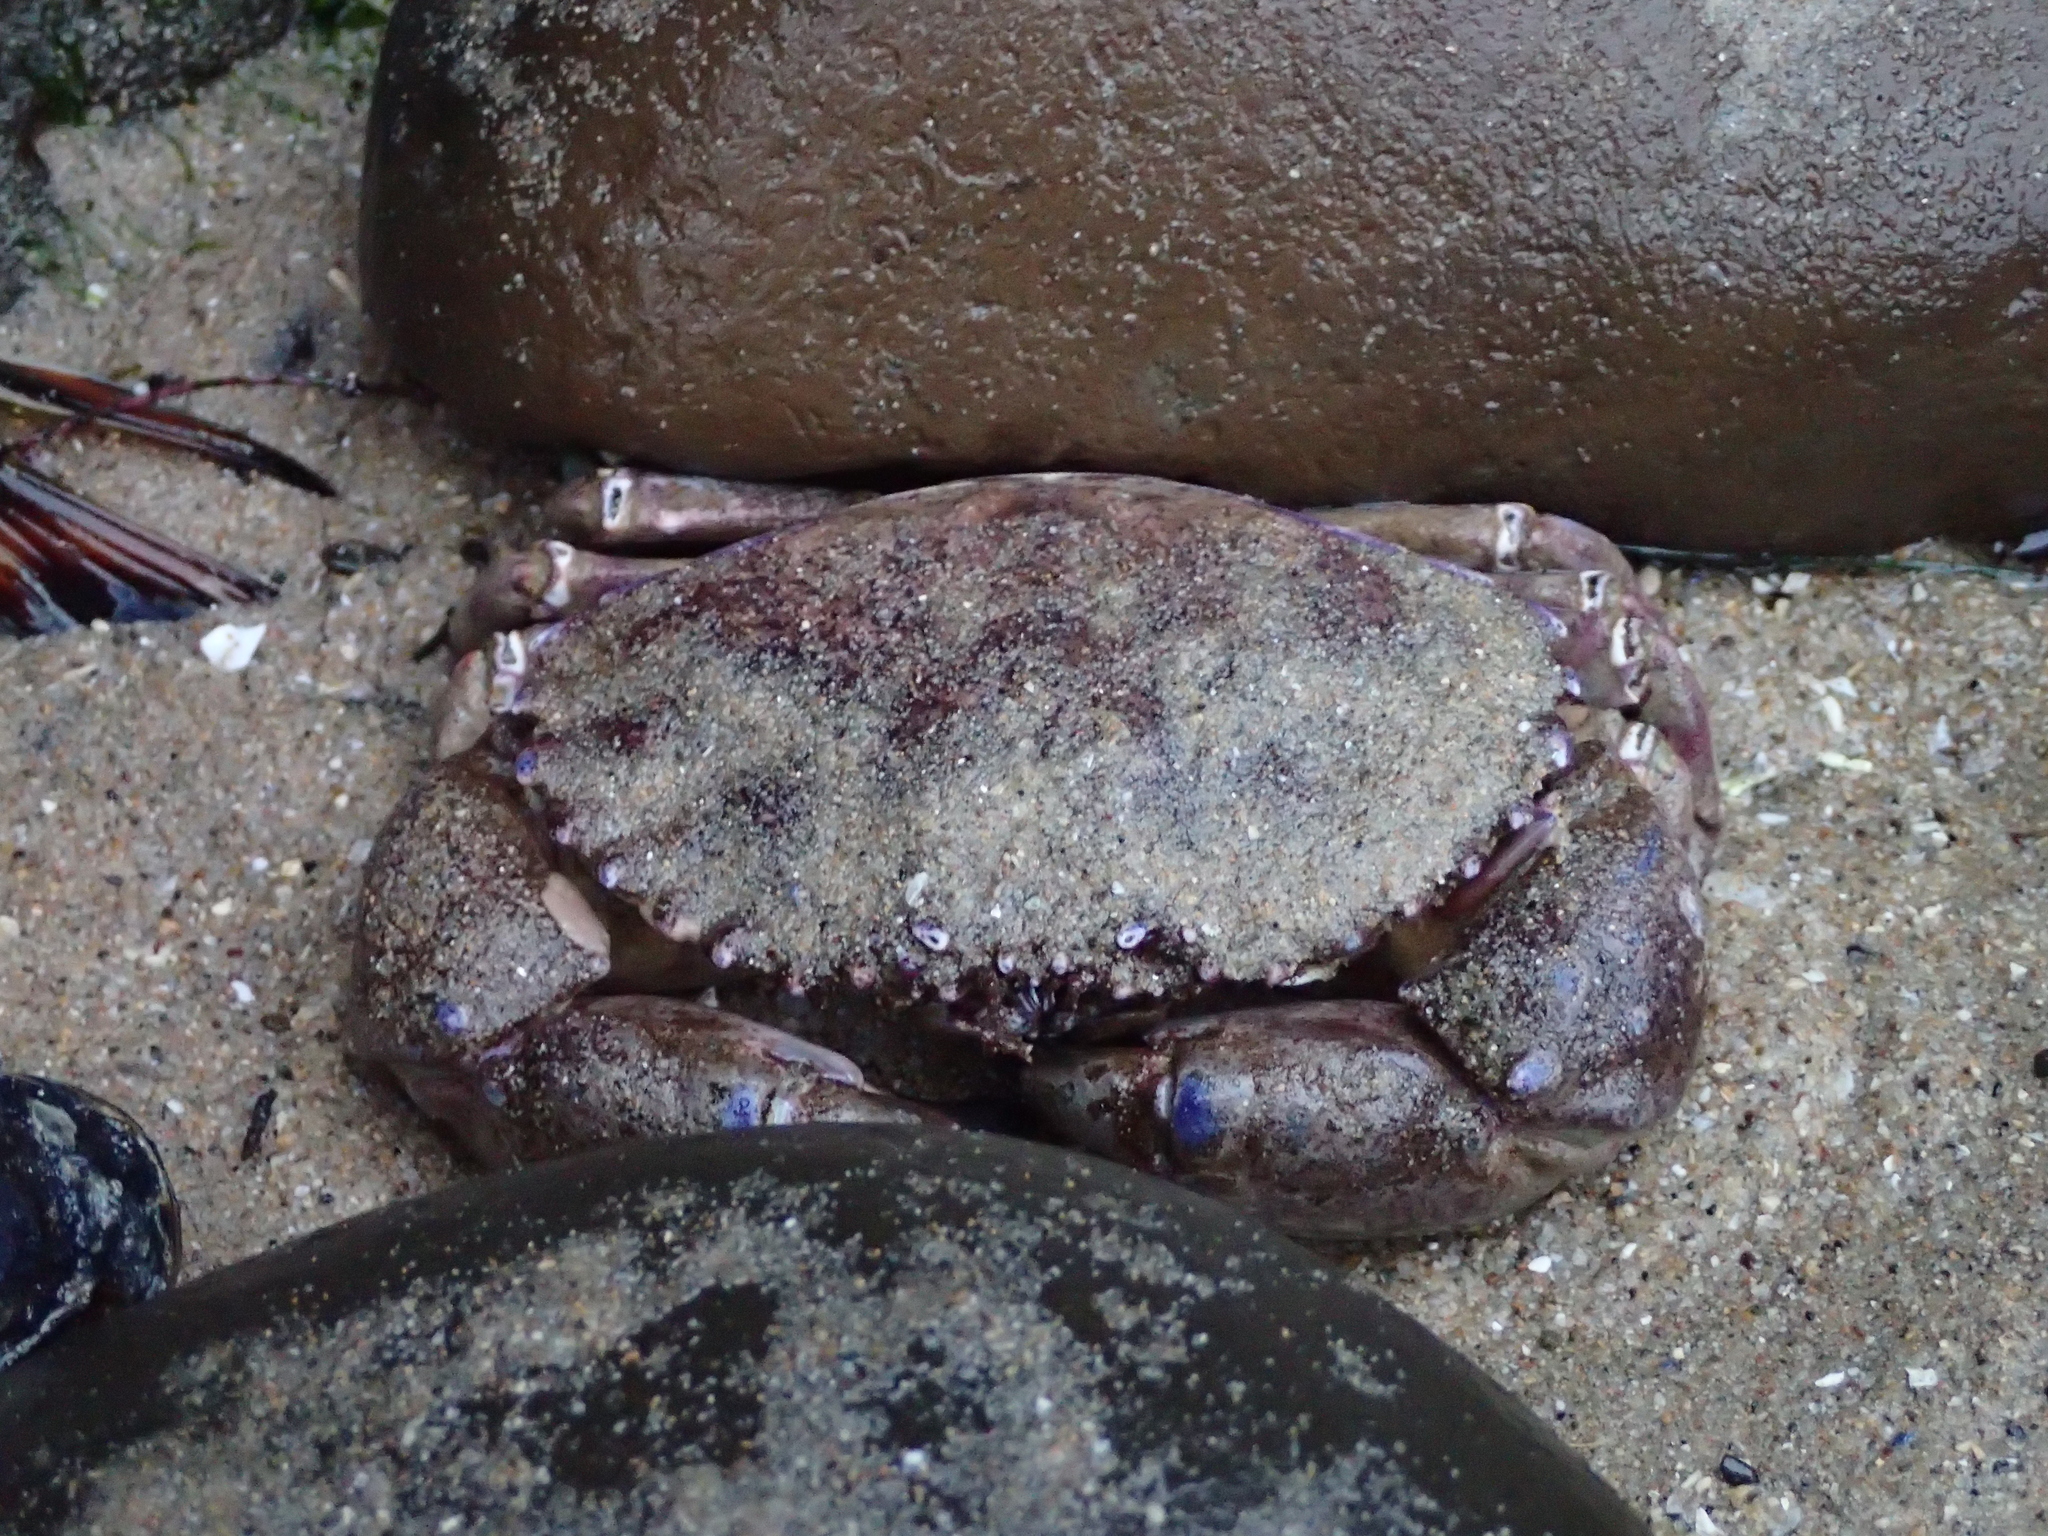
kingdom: Animalia
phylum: Arthropoda
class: Malacostraca
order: Decapoda
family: Cancridae
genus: Romaleon
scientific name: Romaleon antennarium
